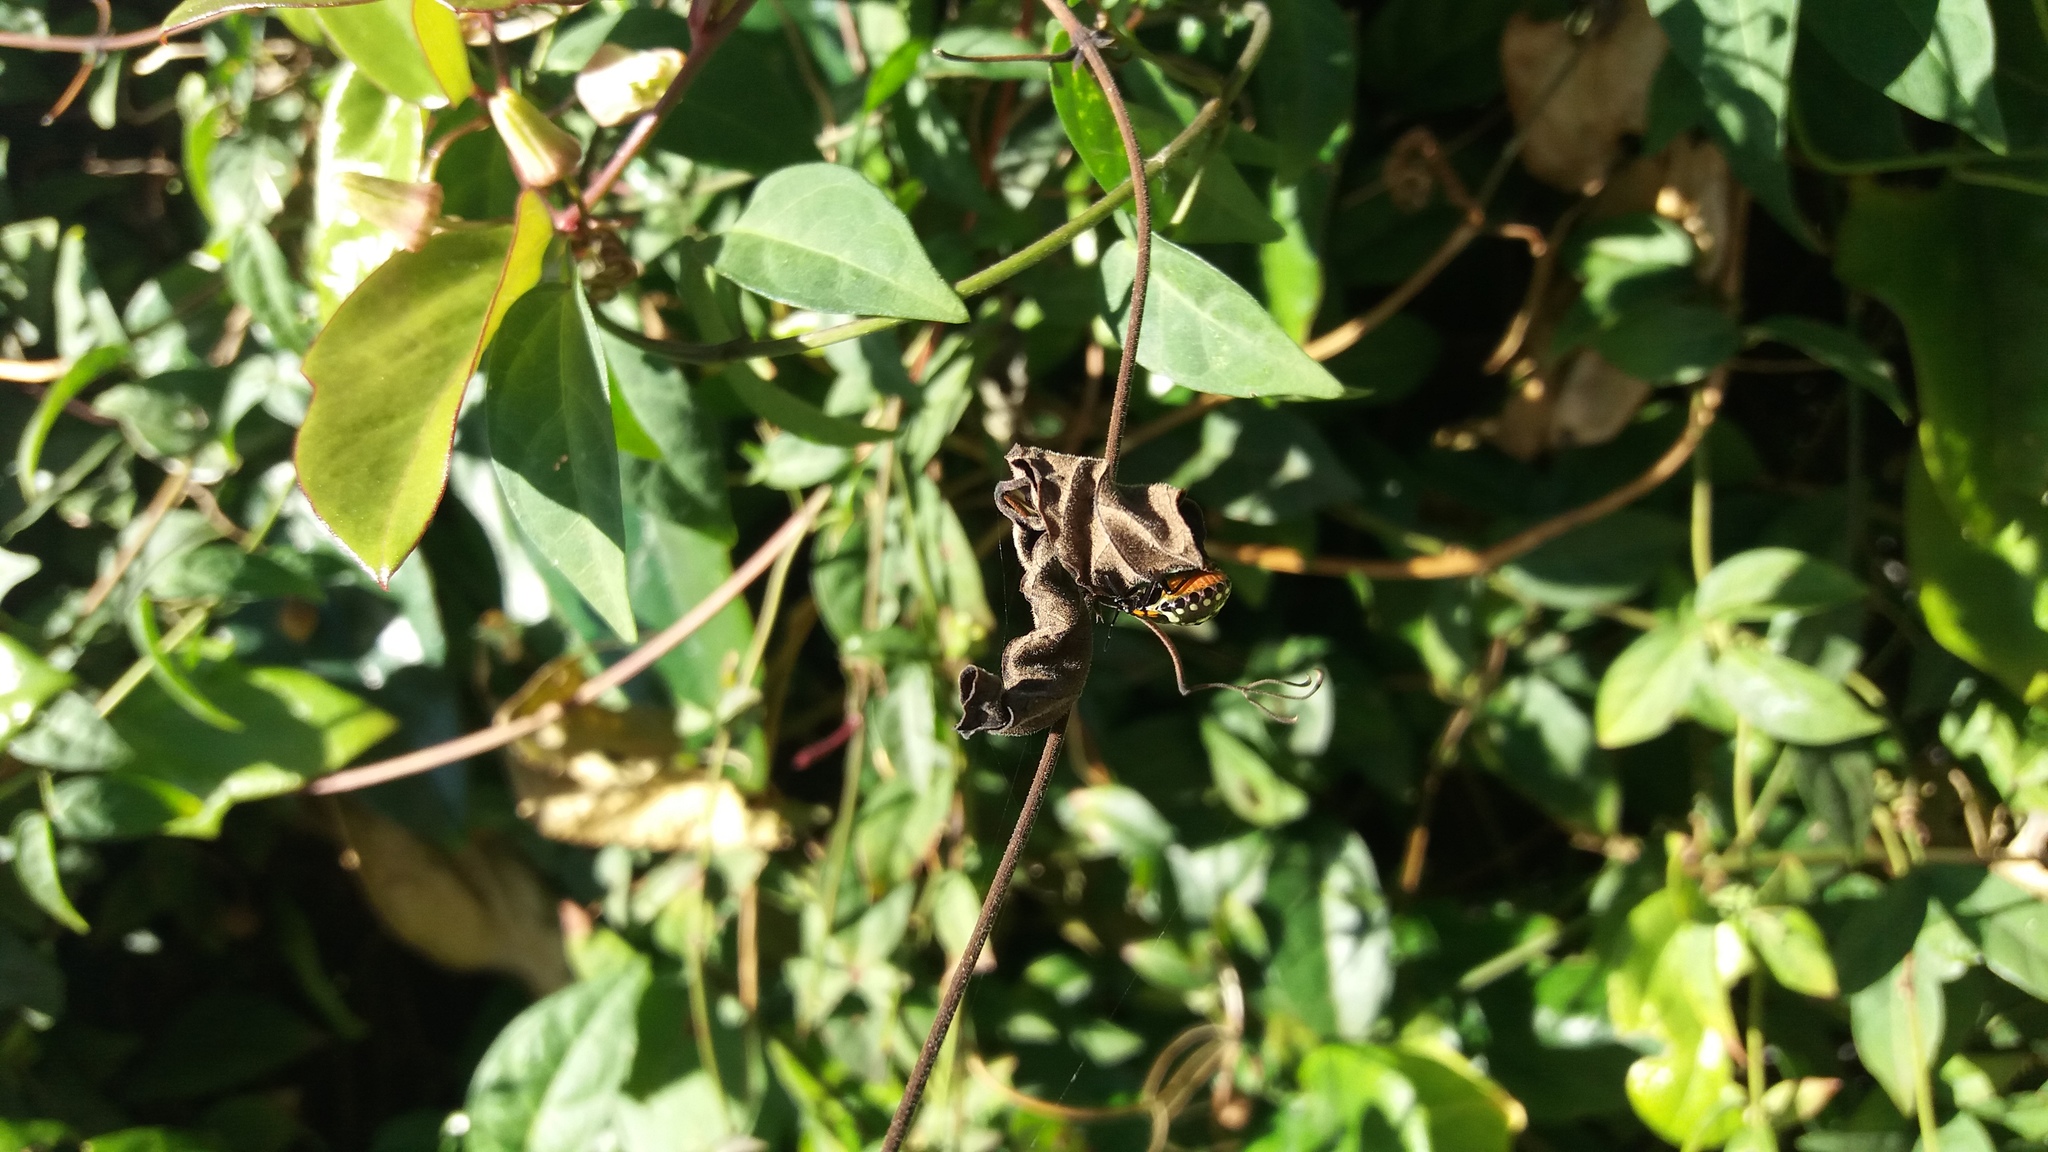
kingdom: Animalia
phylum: Arthropoda
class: Insecta
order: Hemiptera
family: Pentatomidae
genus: Nezara
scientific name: Nezara viridula
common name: Southern green stink bug
